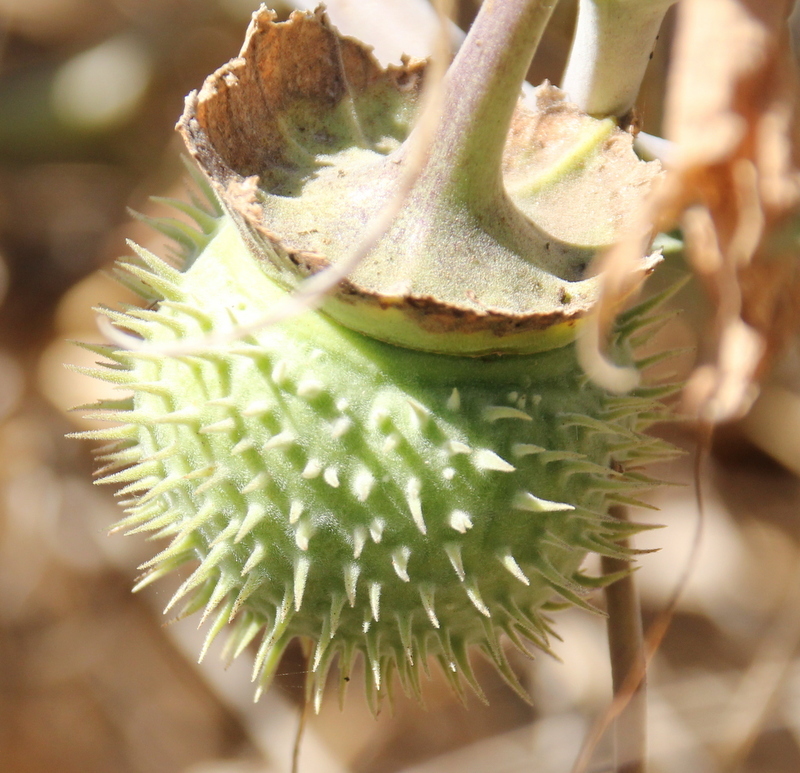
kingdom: Plantae
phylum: Tracheophyta
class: Magnoliopsida
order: Solanales
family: Solanaceae
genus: Datura
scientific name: Datura wrightii
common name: Sacred thorn-apple
